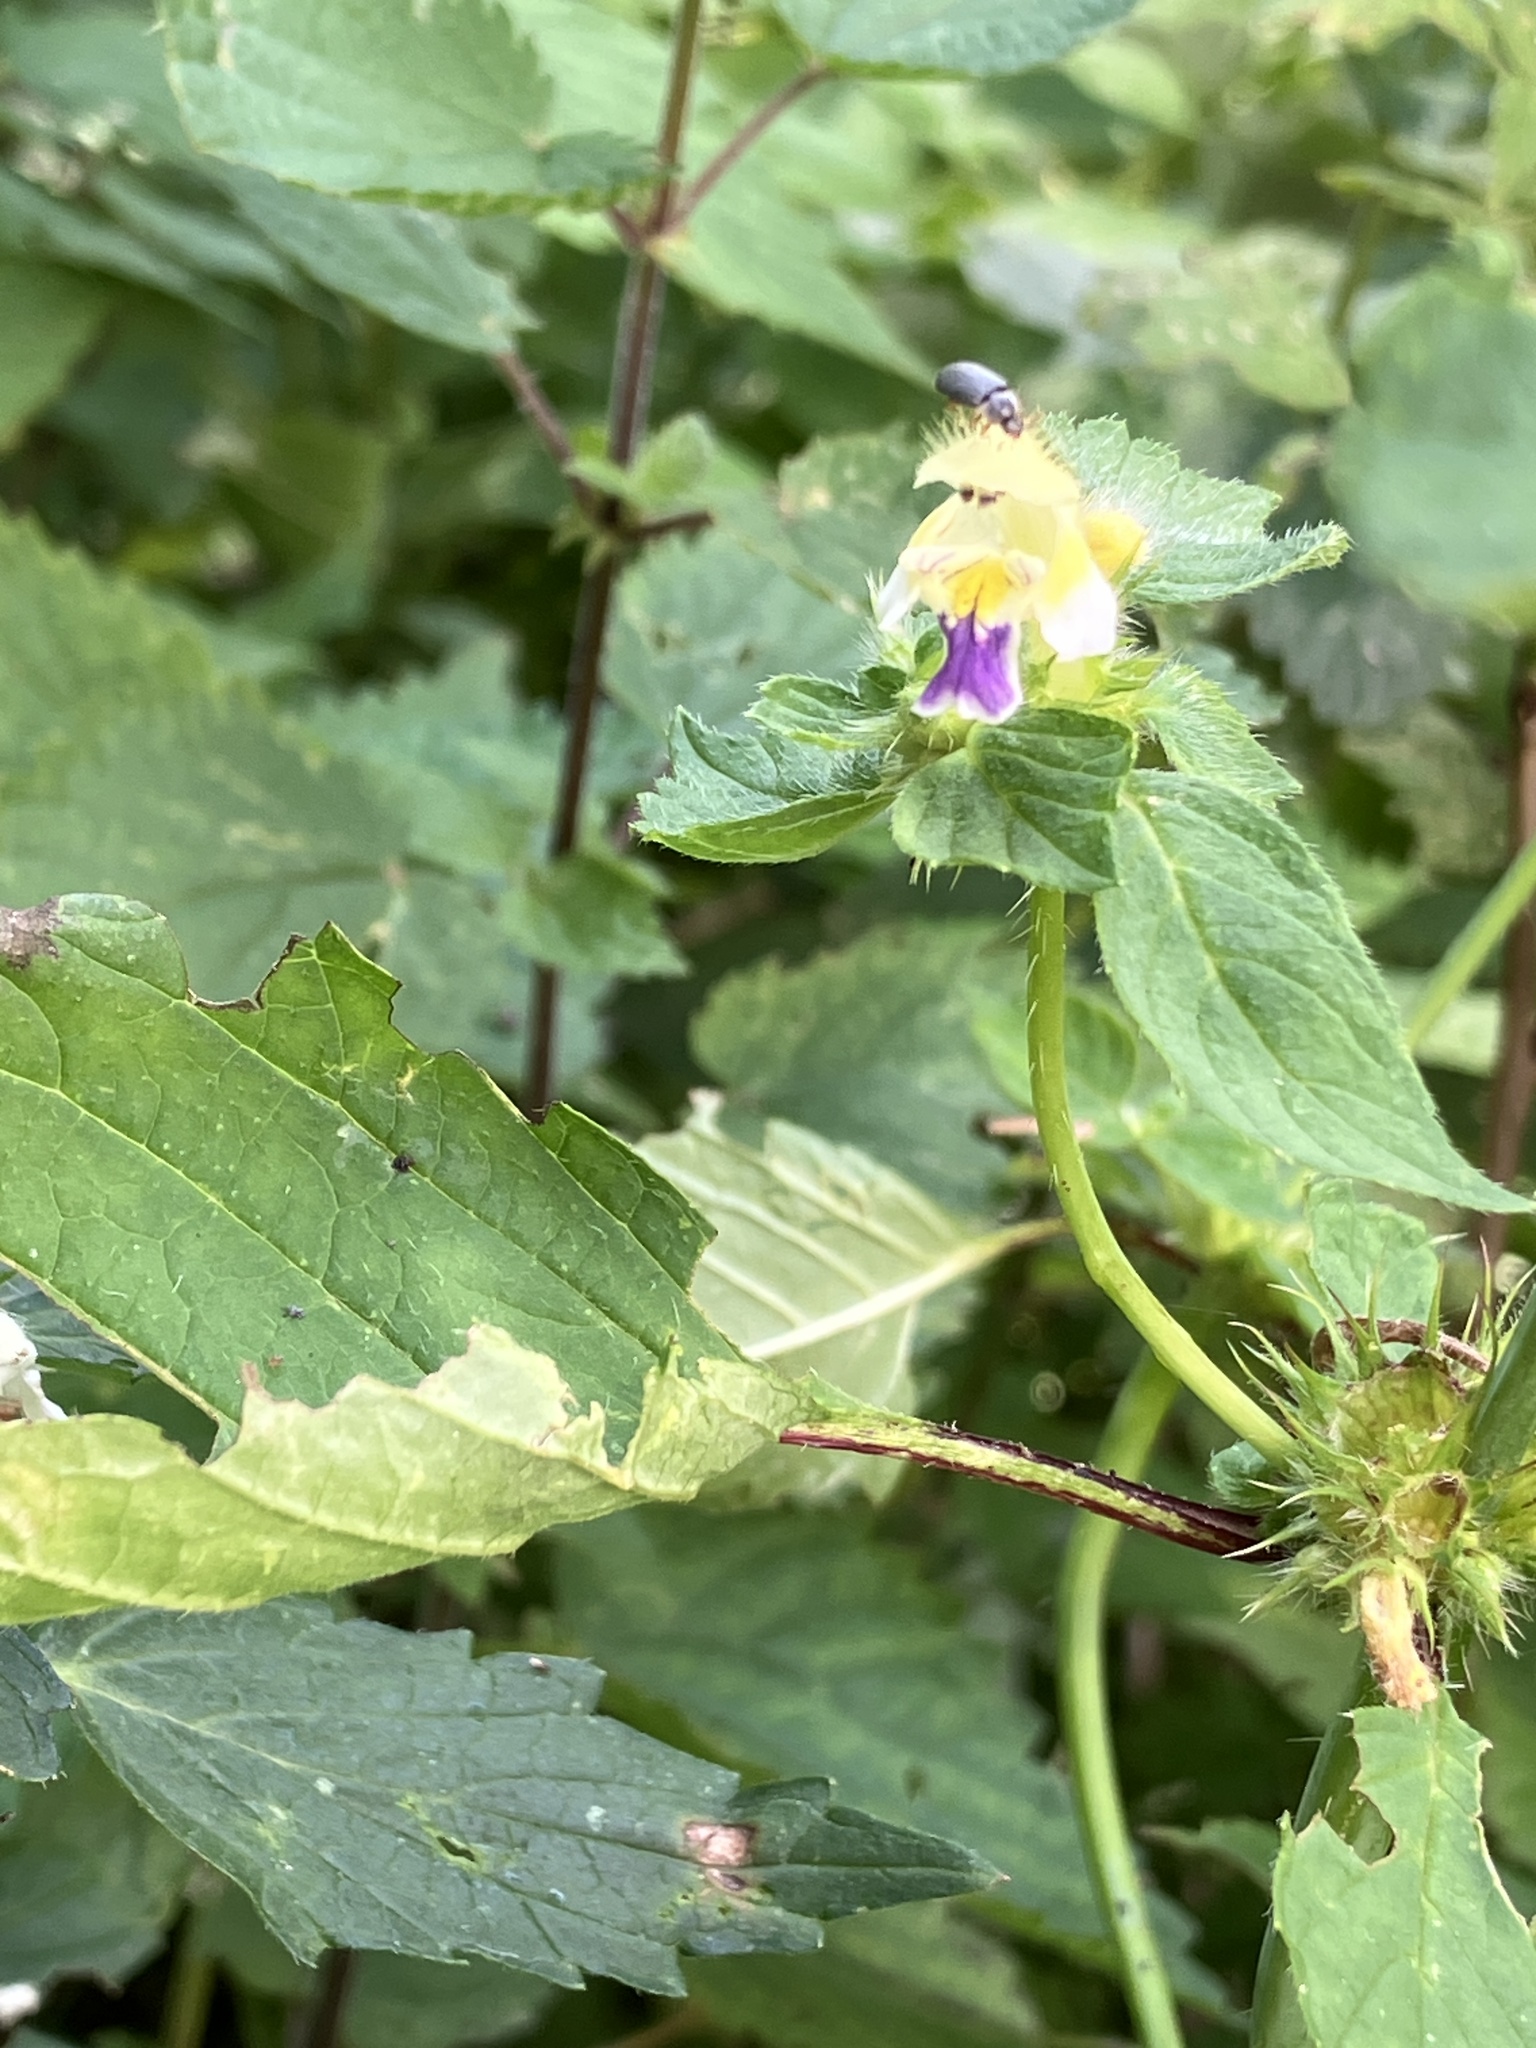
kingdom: Plantae
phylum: Tracheophyta
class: Magnoliopsida
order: Lamiales
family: Lamiaceae
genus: Galeopsis
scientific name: Galeopsis speciosa
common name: Large-flowered hemp-nettle
